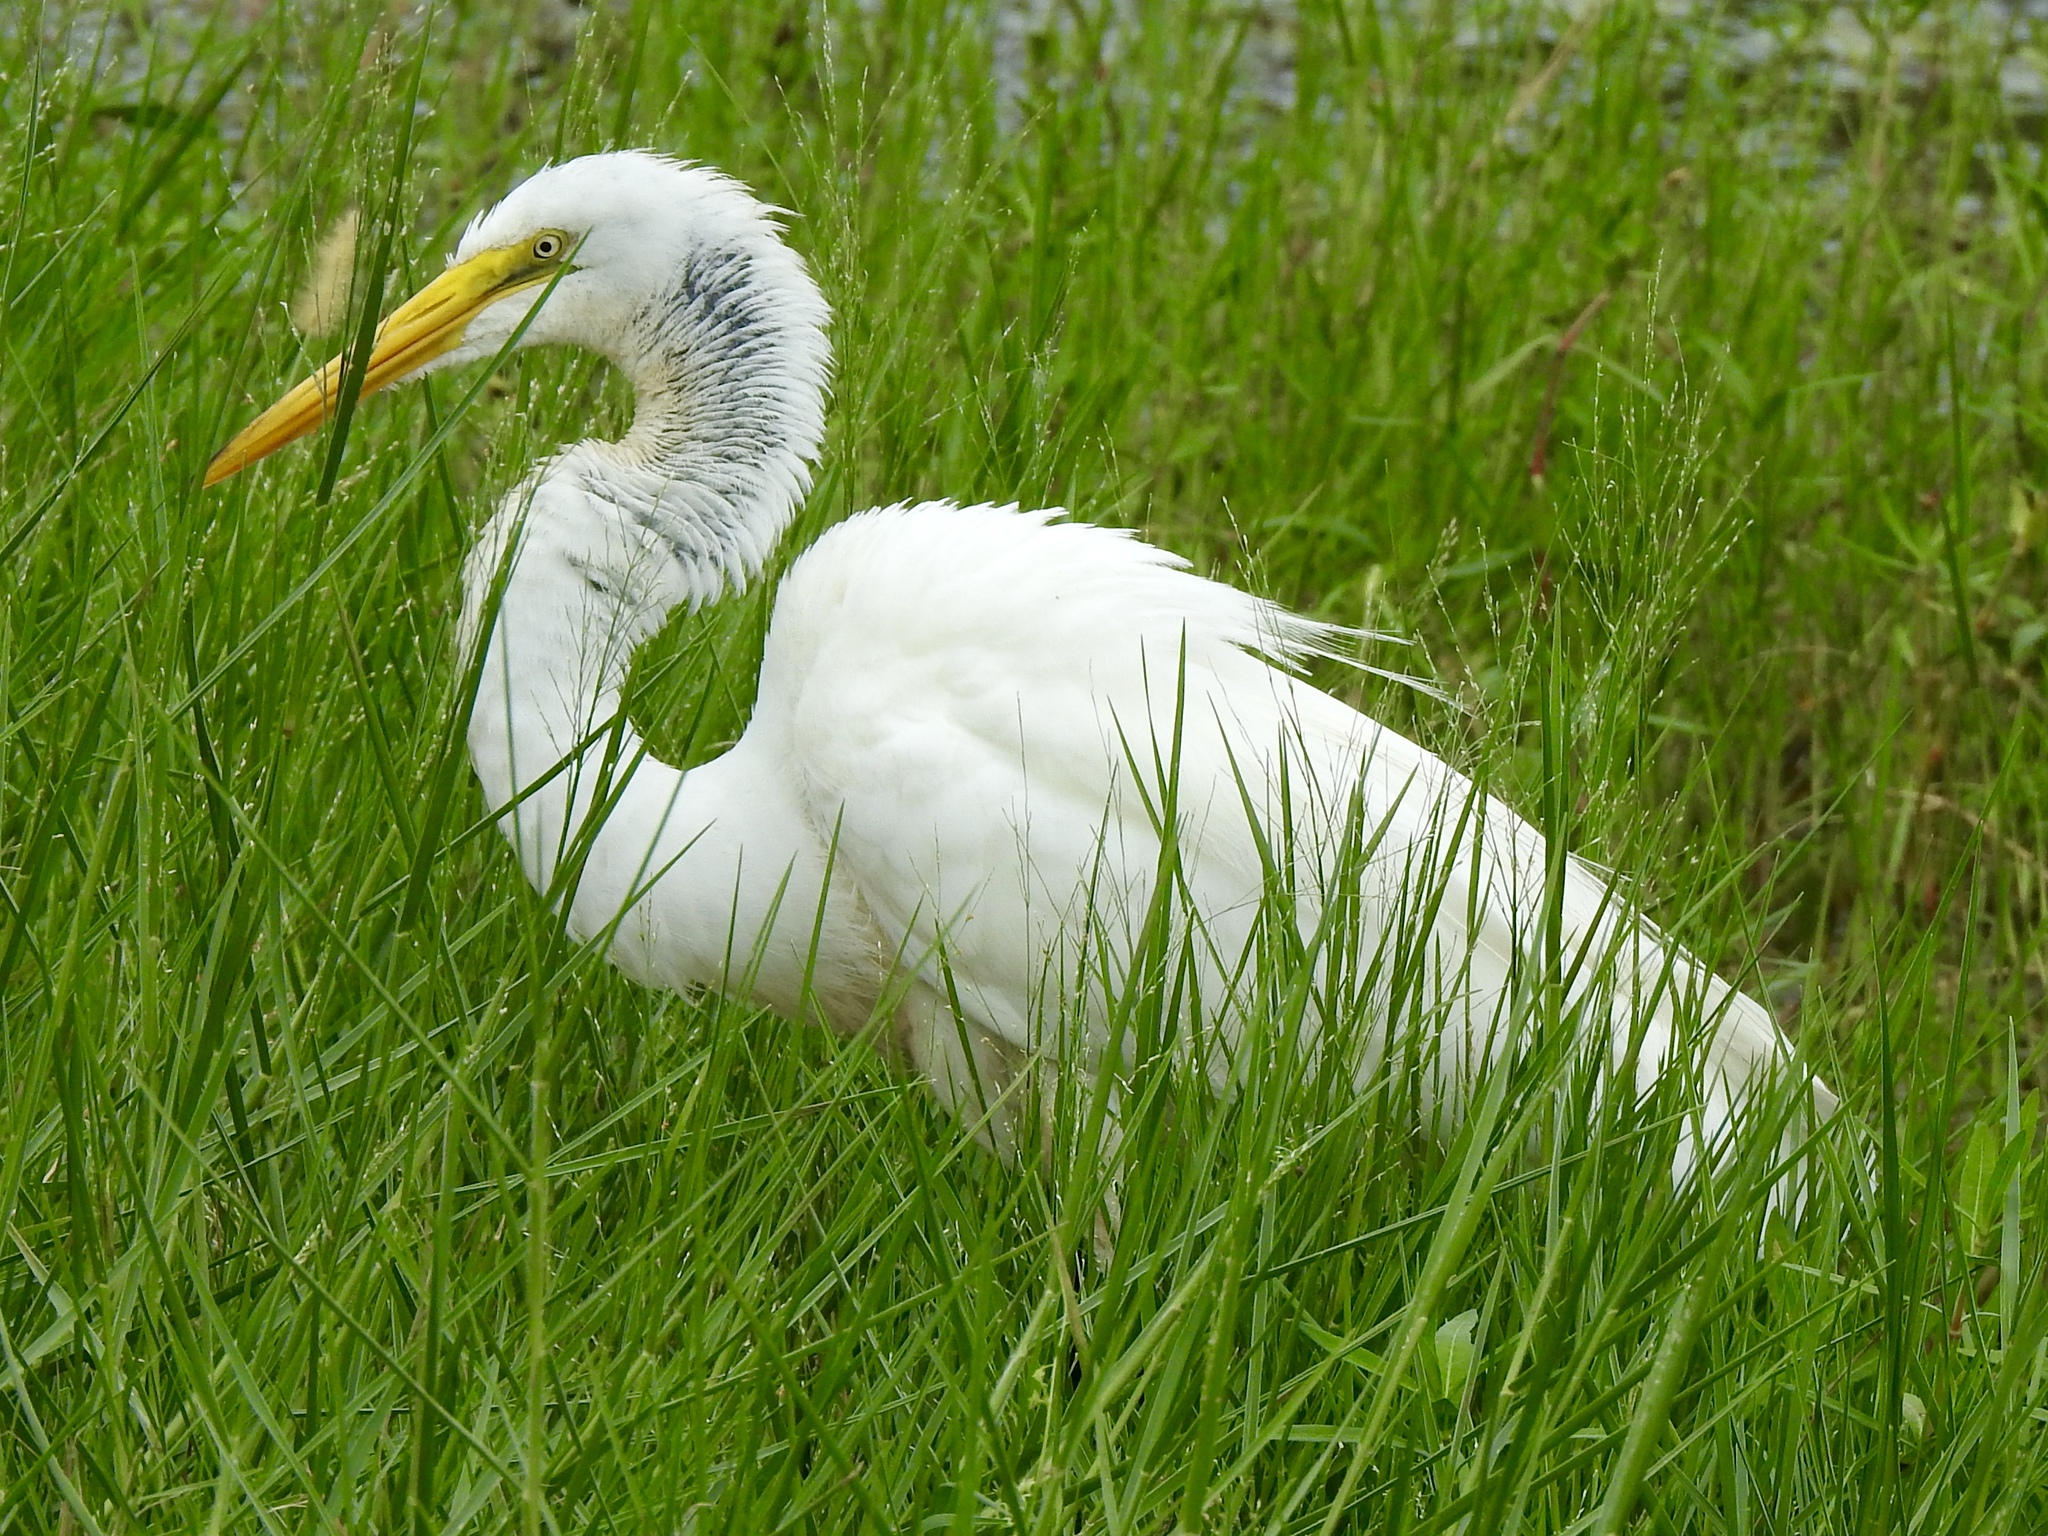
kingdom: Animalia
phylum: Chordata
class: Aves
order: Pelecaniformes
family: Ardeidae
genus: Ardea
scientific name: Ardea alba
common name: Great egret
